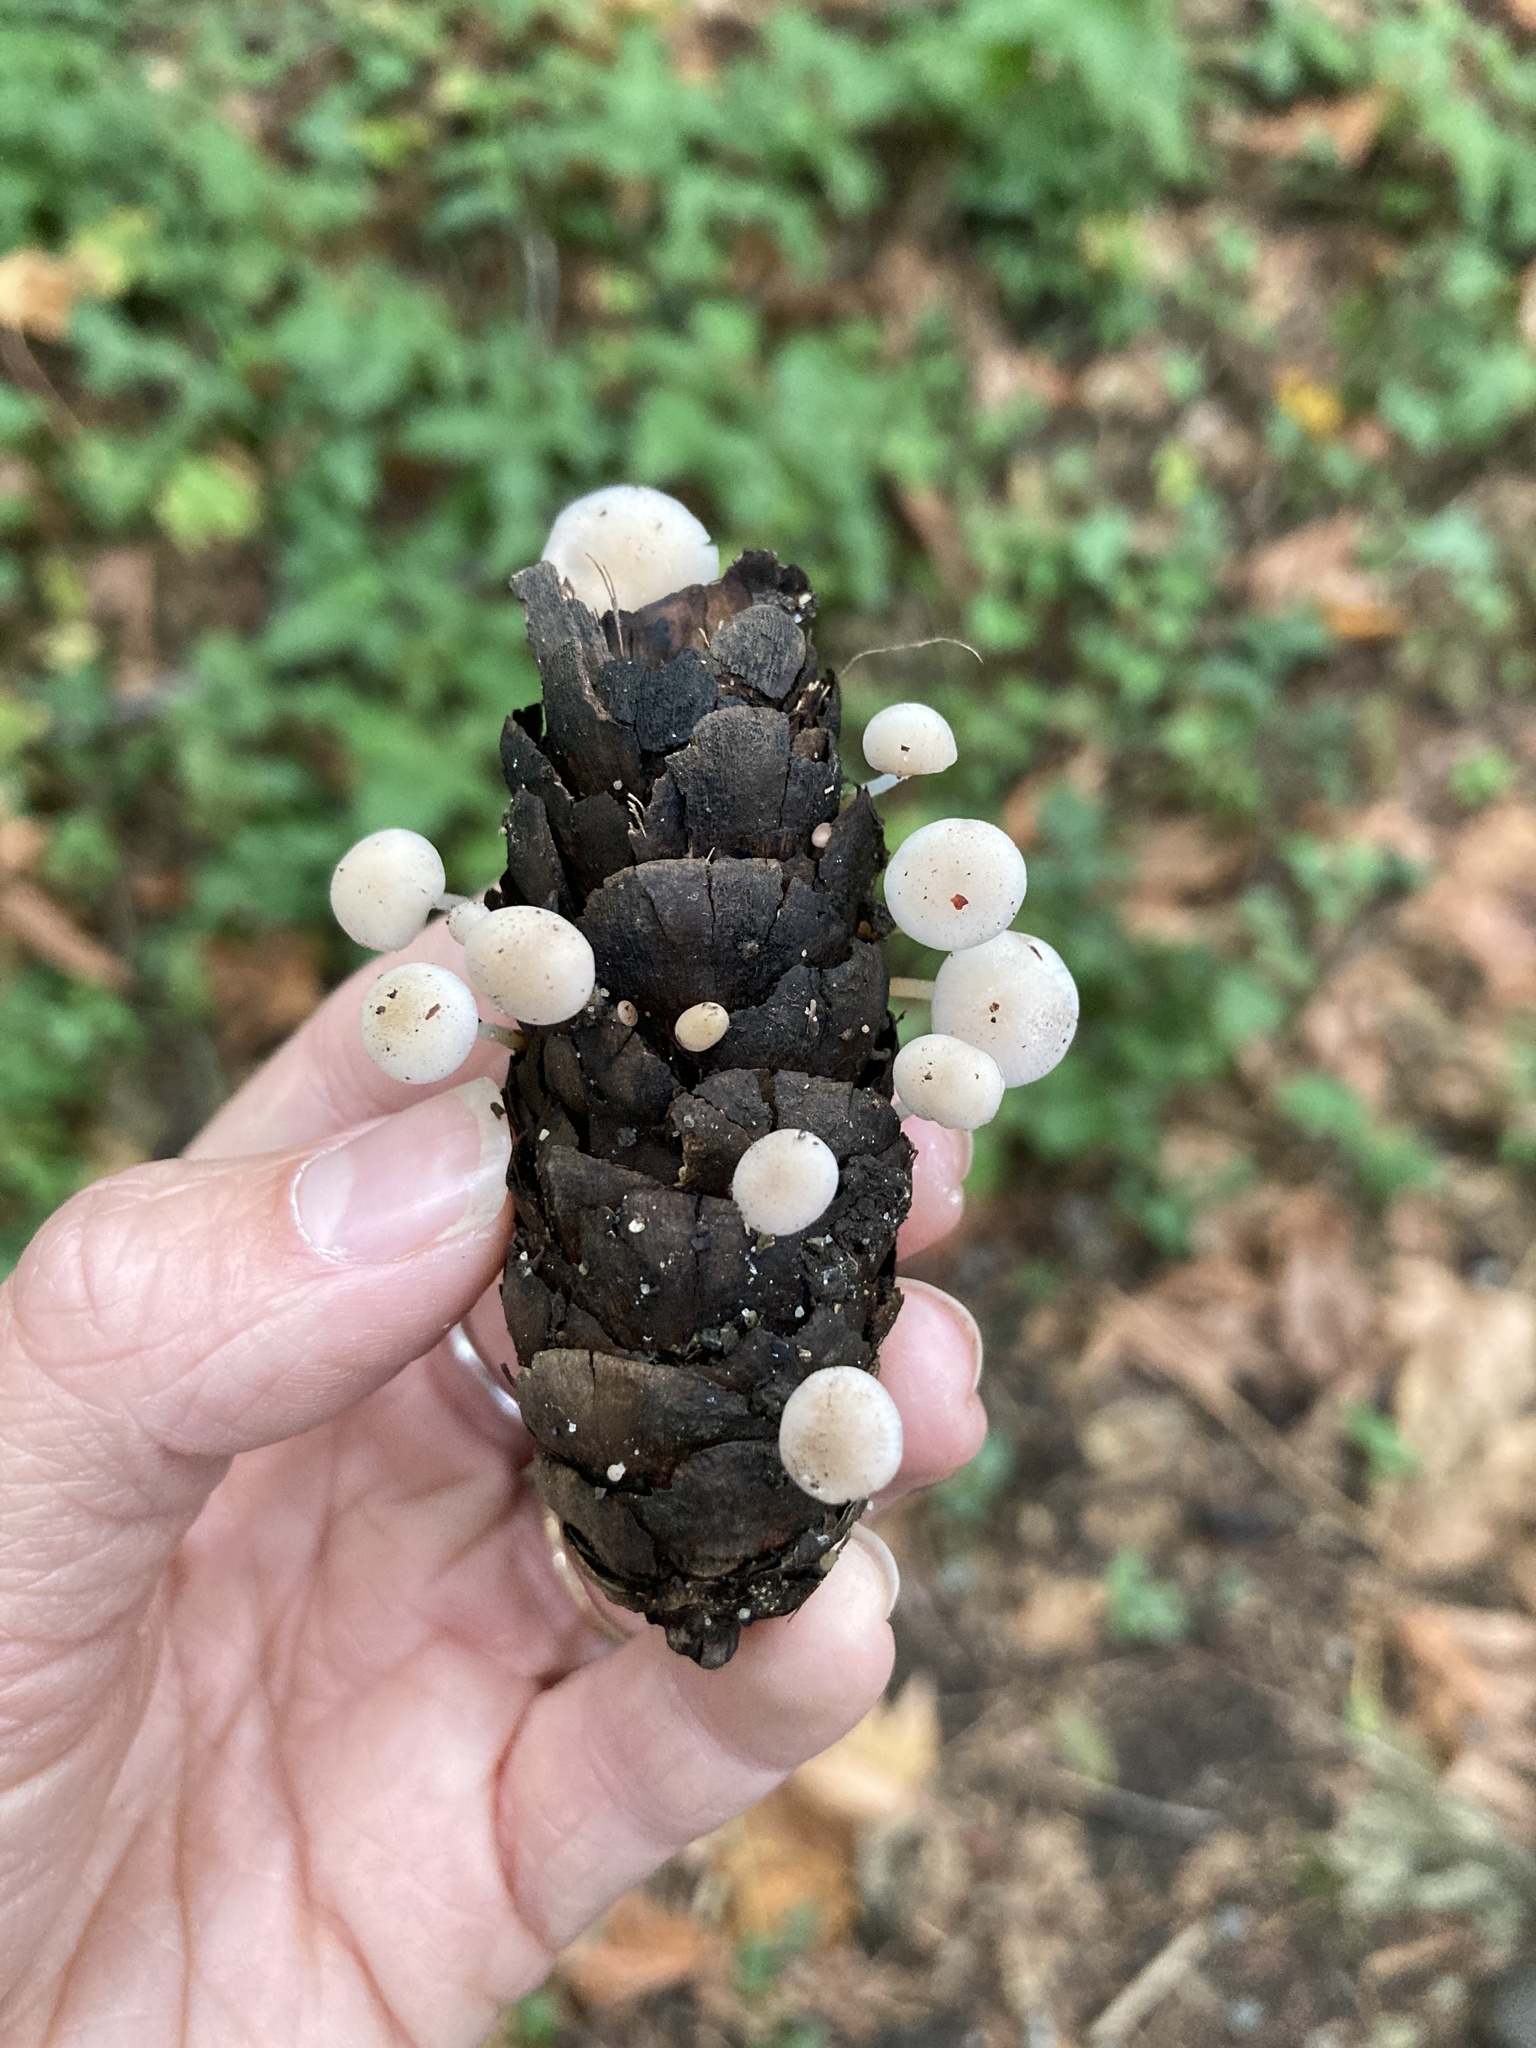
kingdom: Fungi
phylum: Basidiomycota
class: Agaricomycetes
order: Agaricales
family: Physalacriaceae
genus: Strobilurus
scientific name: Strobilurus trullisatus
